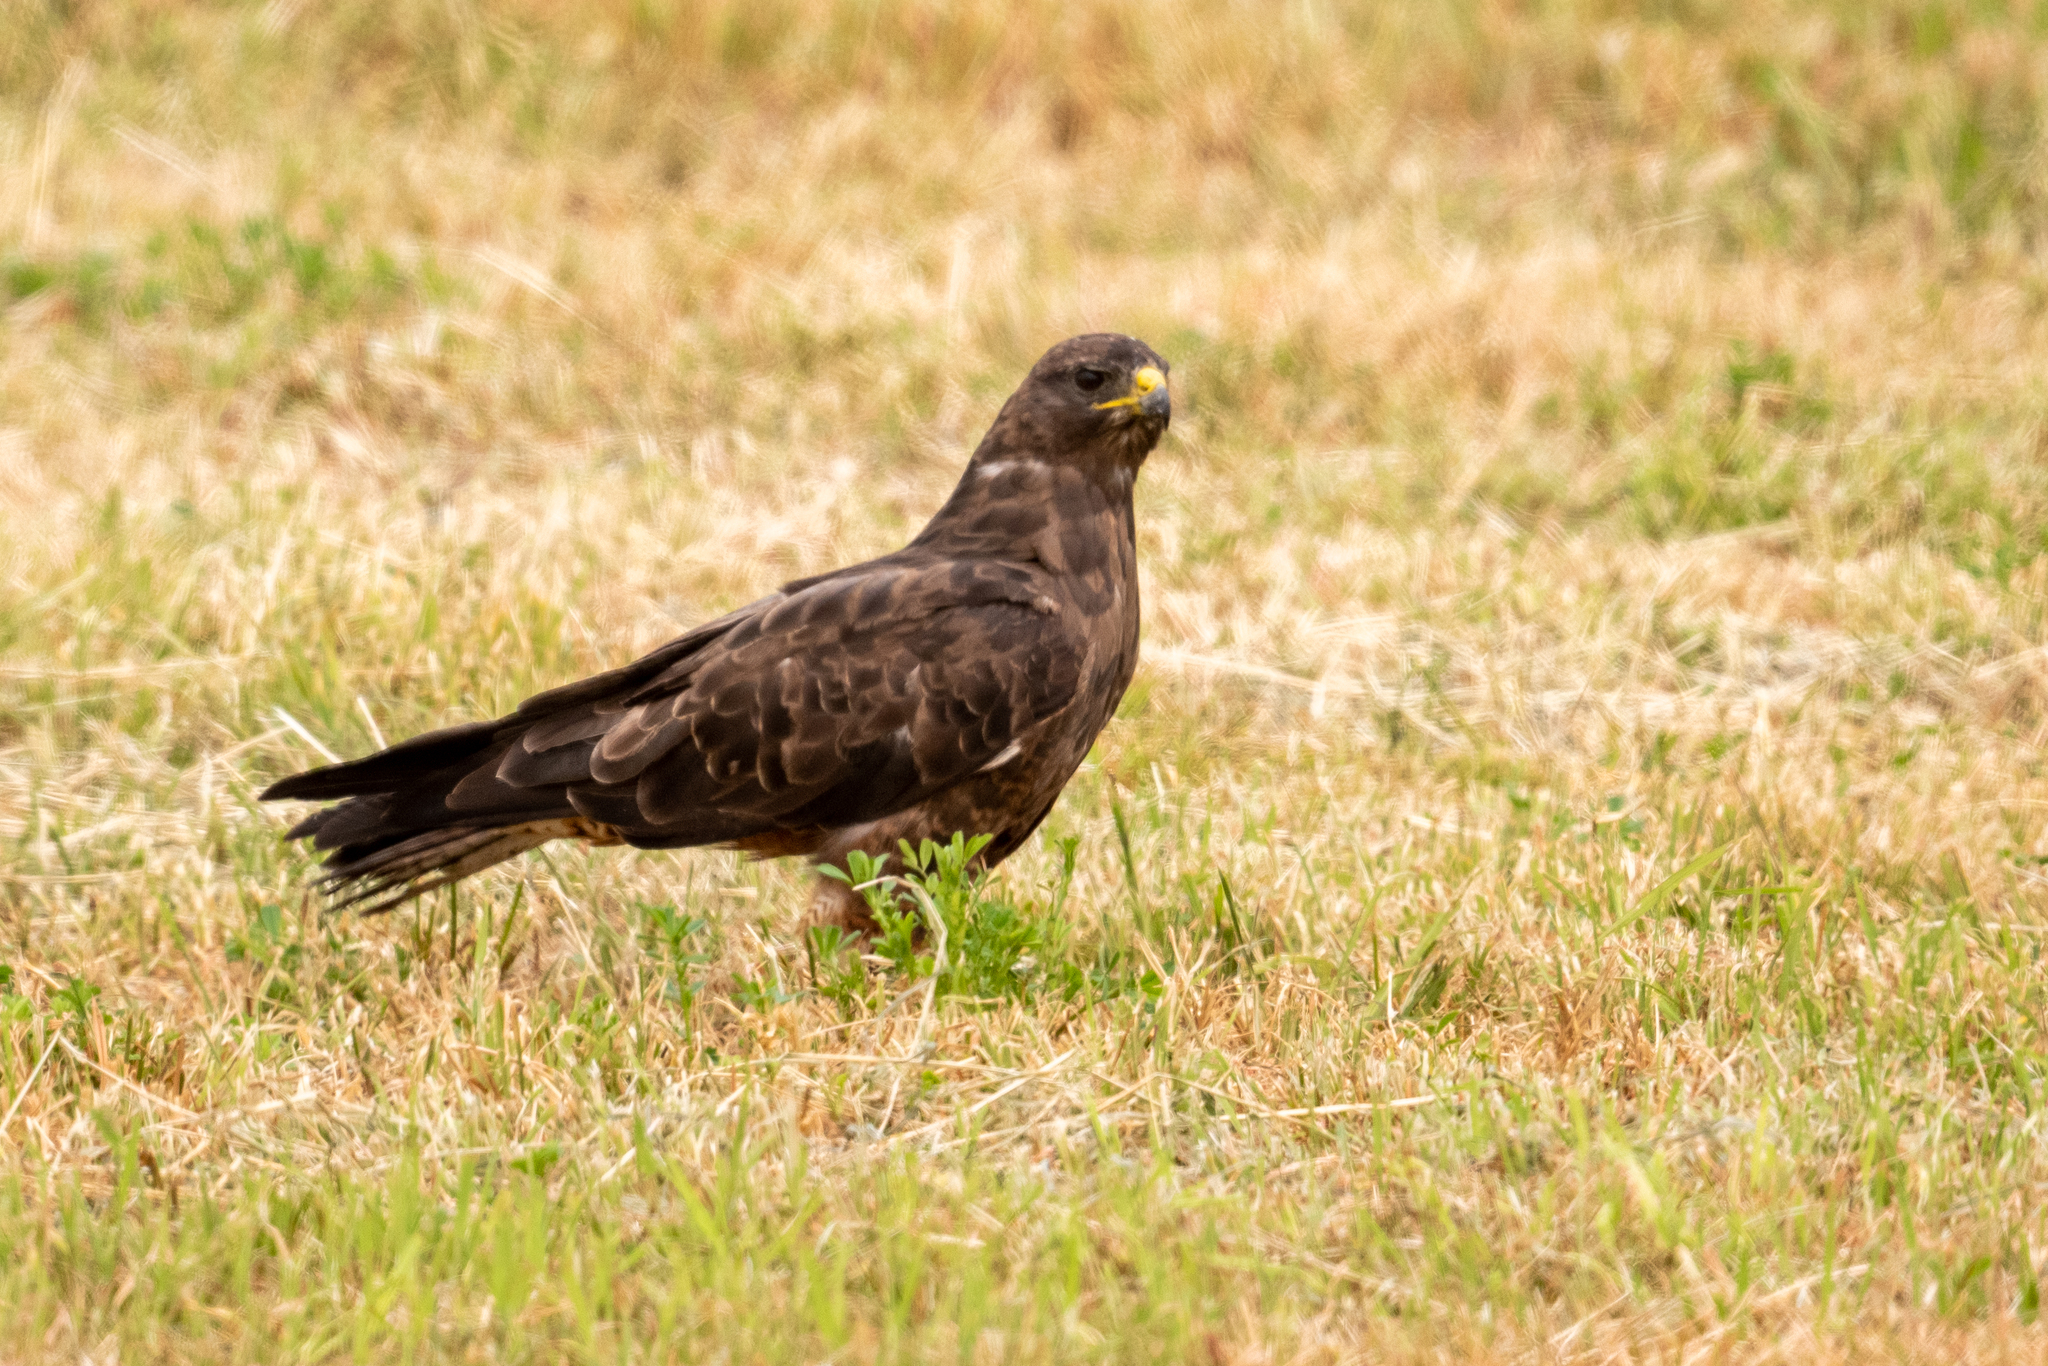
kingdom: Animalia
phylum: Chordata
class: Aves
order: Accipitriformes
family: Accipitridae
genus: Buteo
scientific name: Buteo swainsoni
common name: Swainson's hawk
